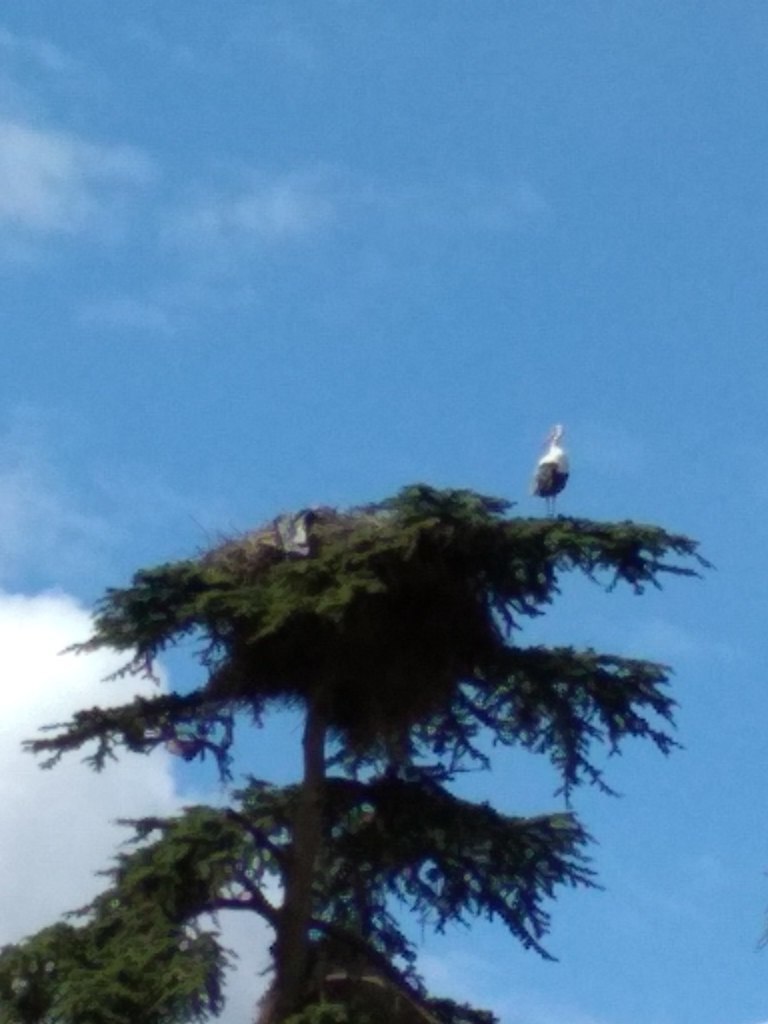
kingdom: Animalia
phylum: Chordata
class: Aves
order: Ciconiiformes
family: Ciconiidae
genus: Ciconia
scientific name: Ciconia ciconia
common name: White stork
